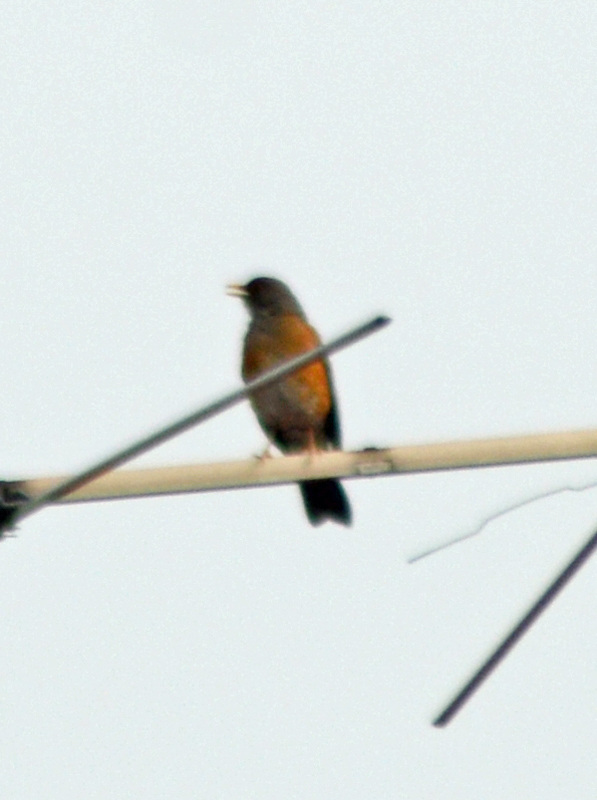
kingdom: Animalia
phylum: Chordata
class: Aves
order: Passeriformes
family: Turdidae
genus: Turdus
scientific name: Turdus rufopalliatus
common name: Rufous-backed robin
